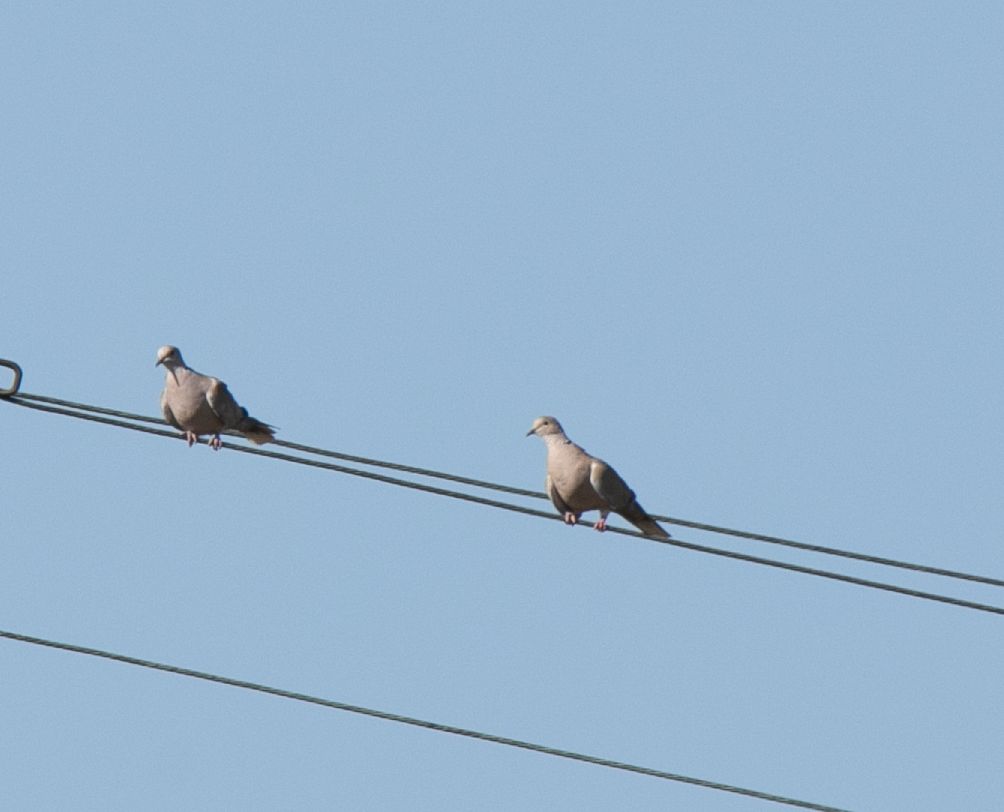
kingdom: Animalia
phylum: Chordata
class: Aves
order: Columbiformes
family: Columbidae
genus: Streptopelia
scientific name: Streptopelia decaocto
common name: Eurasian collared dove
